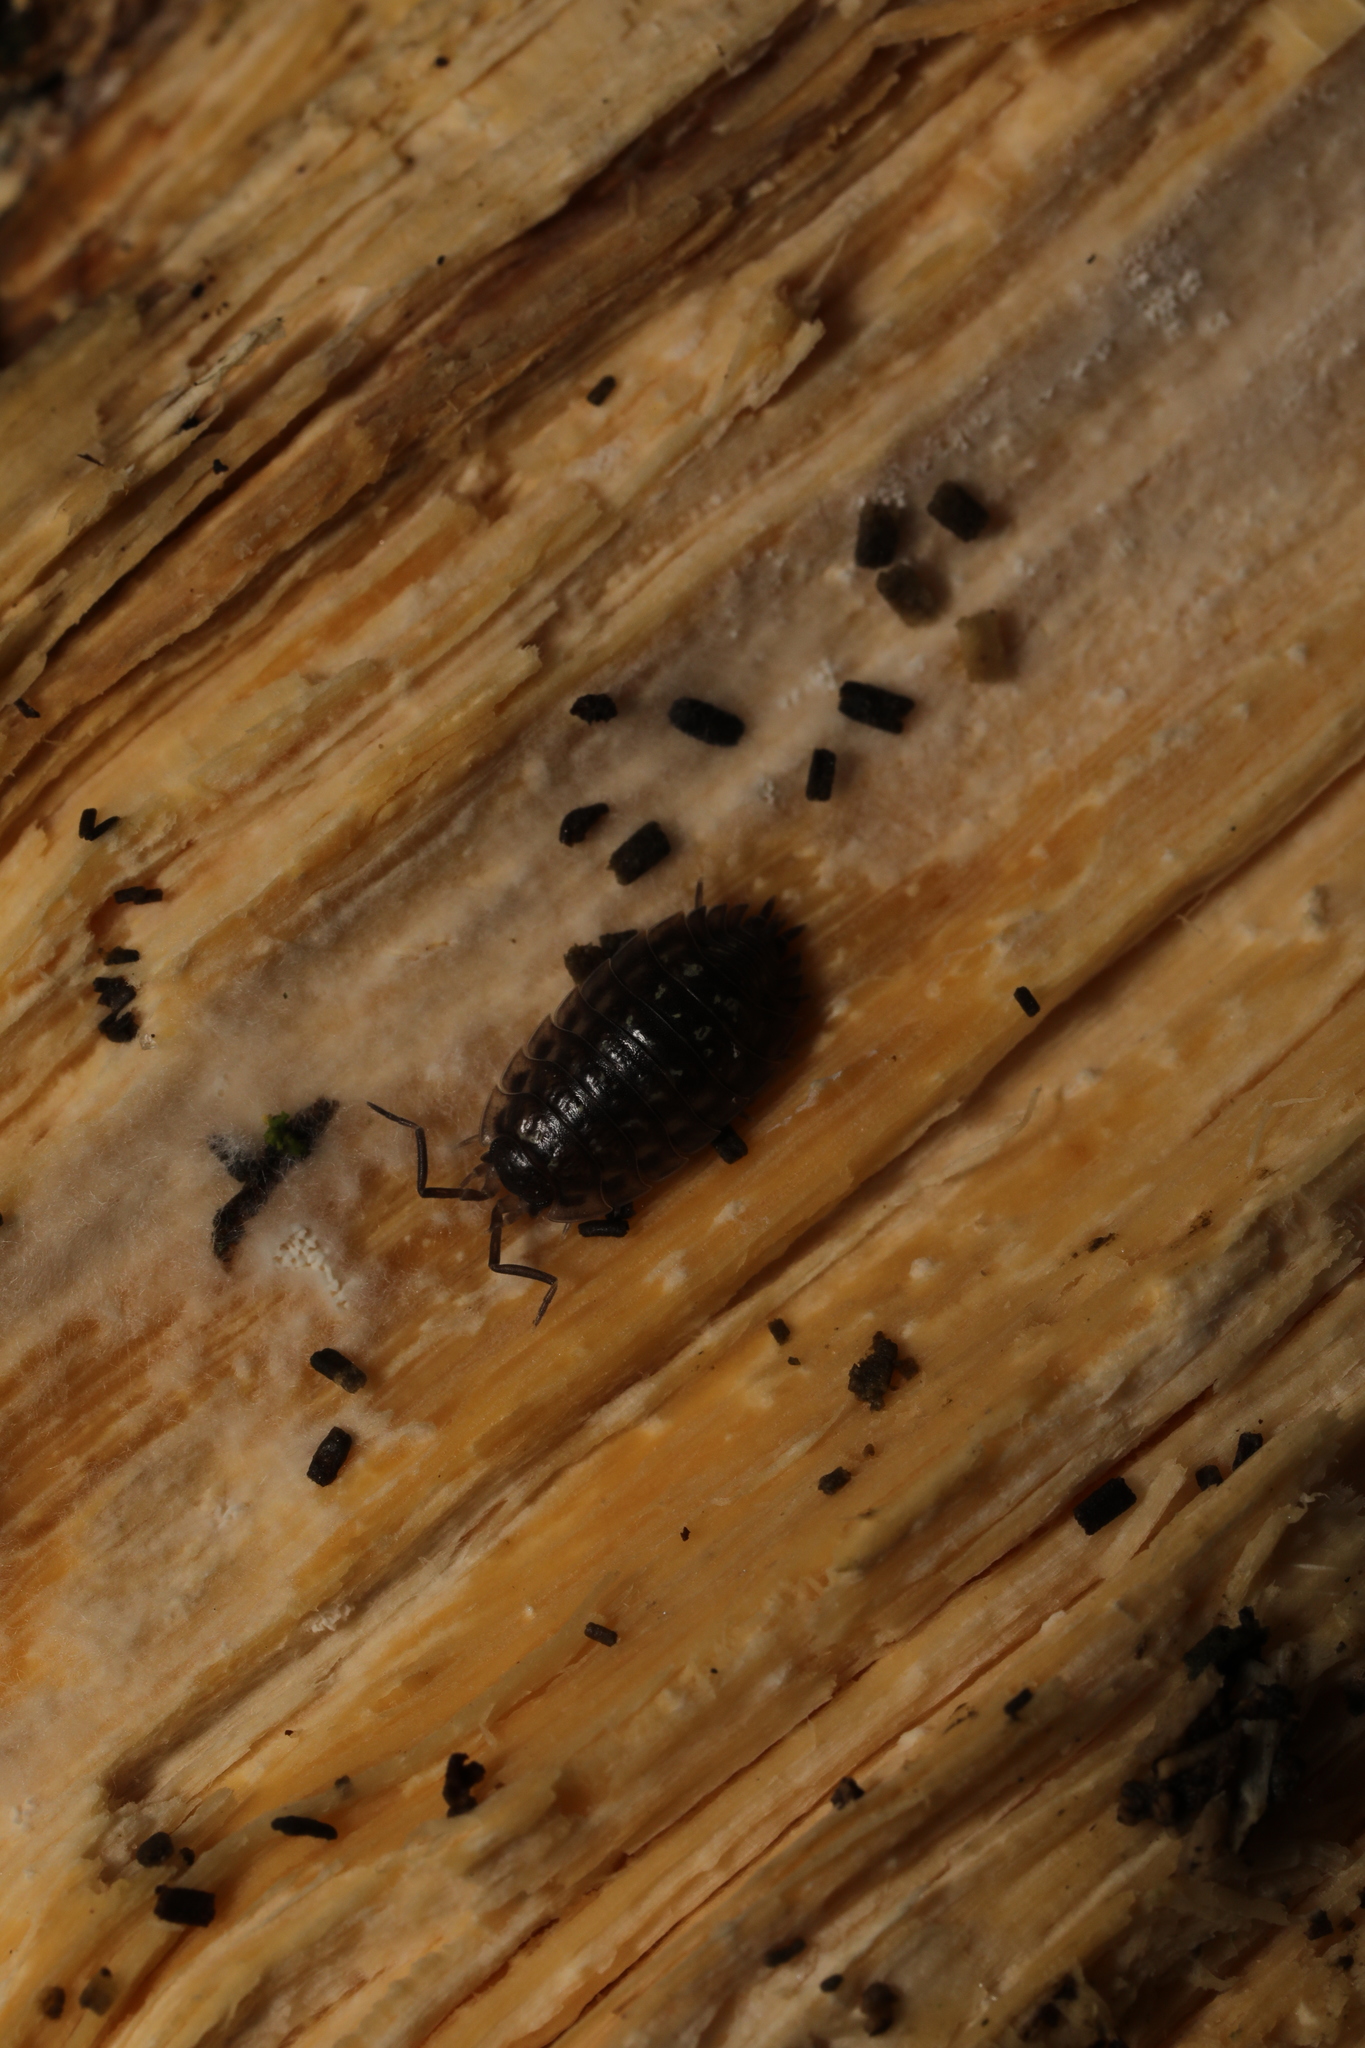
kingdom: Animalia
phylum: Arthropoda
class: Malacostraca
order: Isopoda
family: Oniscidae
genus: Oniscus
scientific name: Oniscus asellus
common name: Common shiny woodlouse
